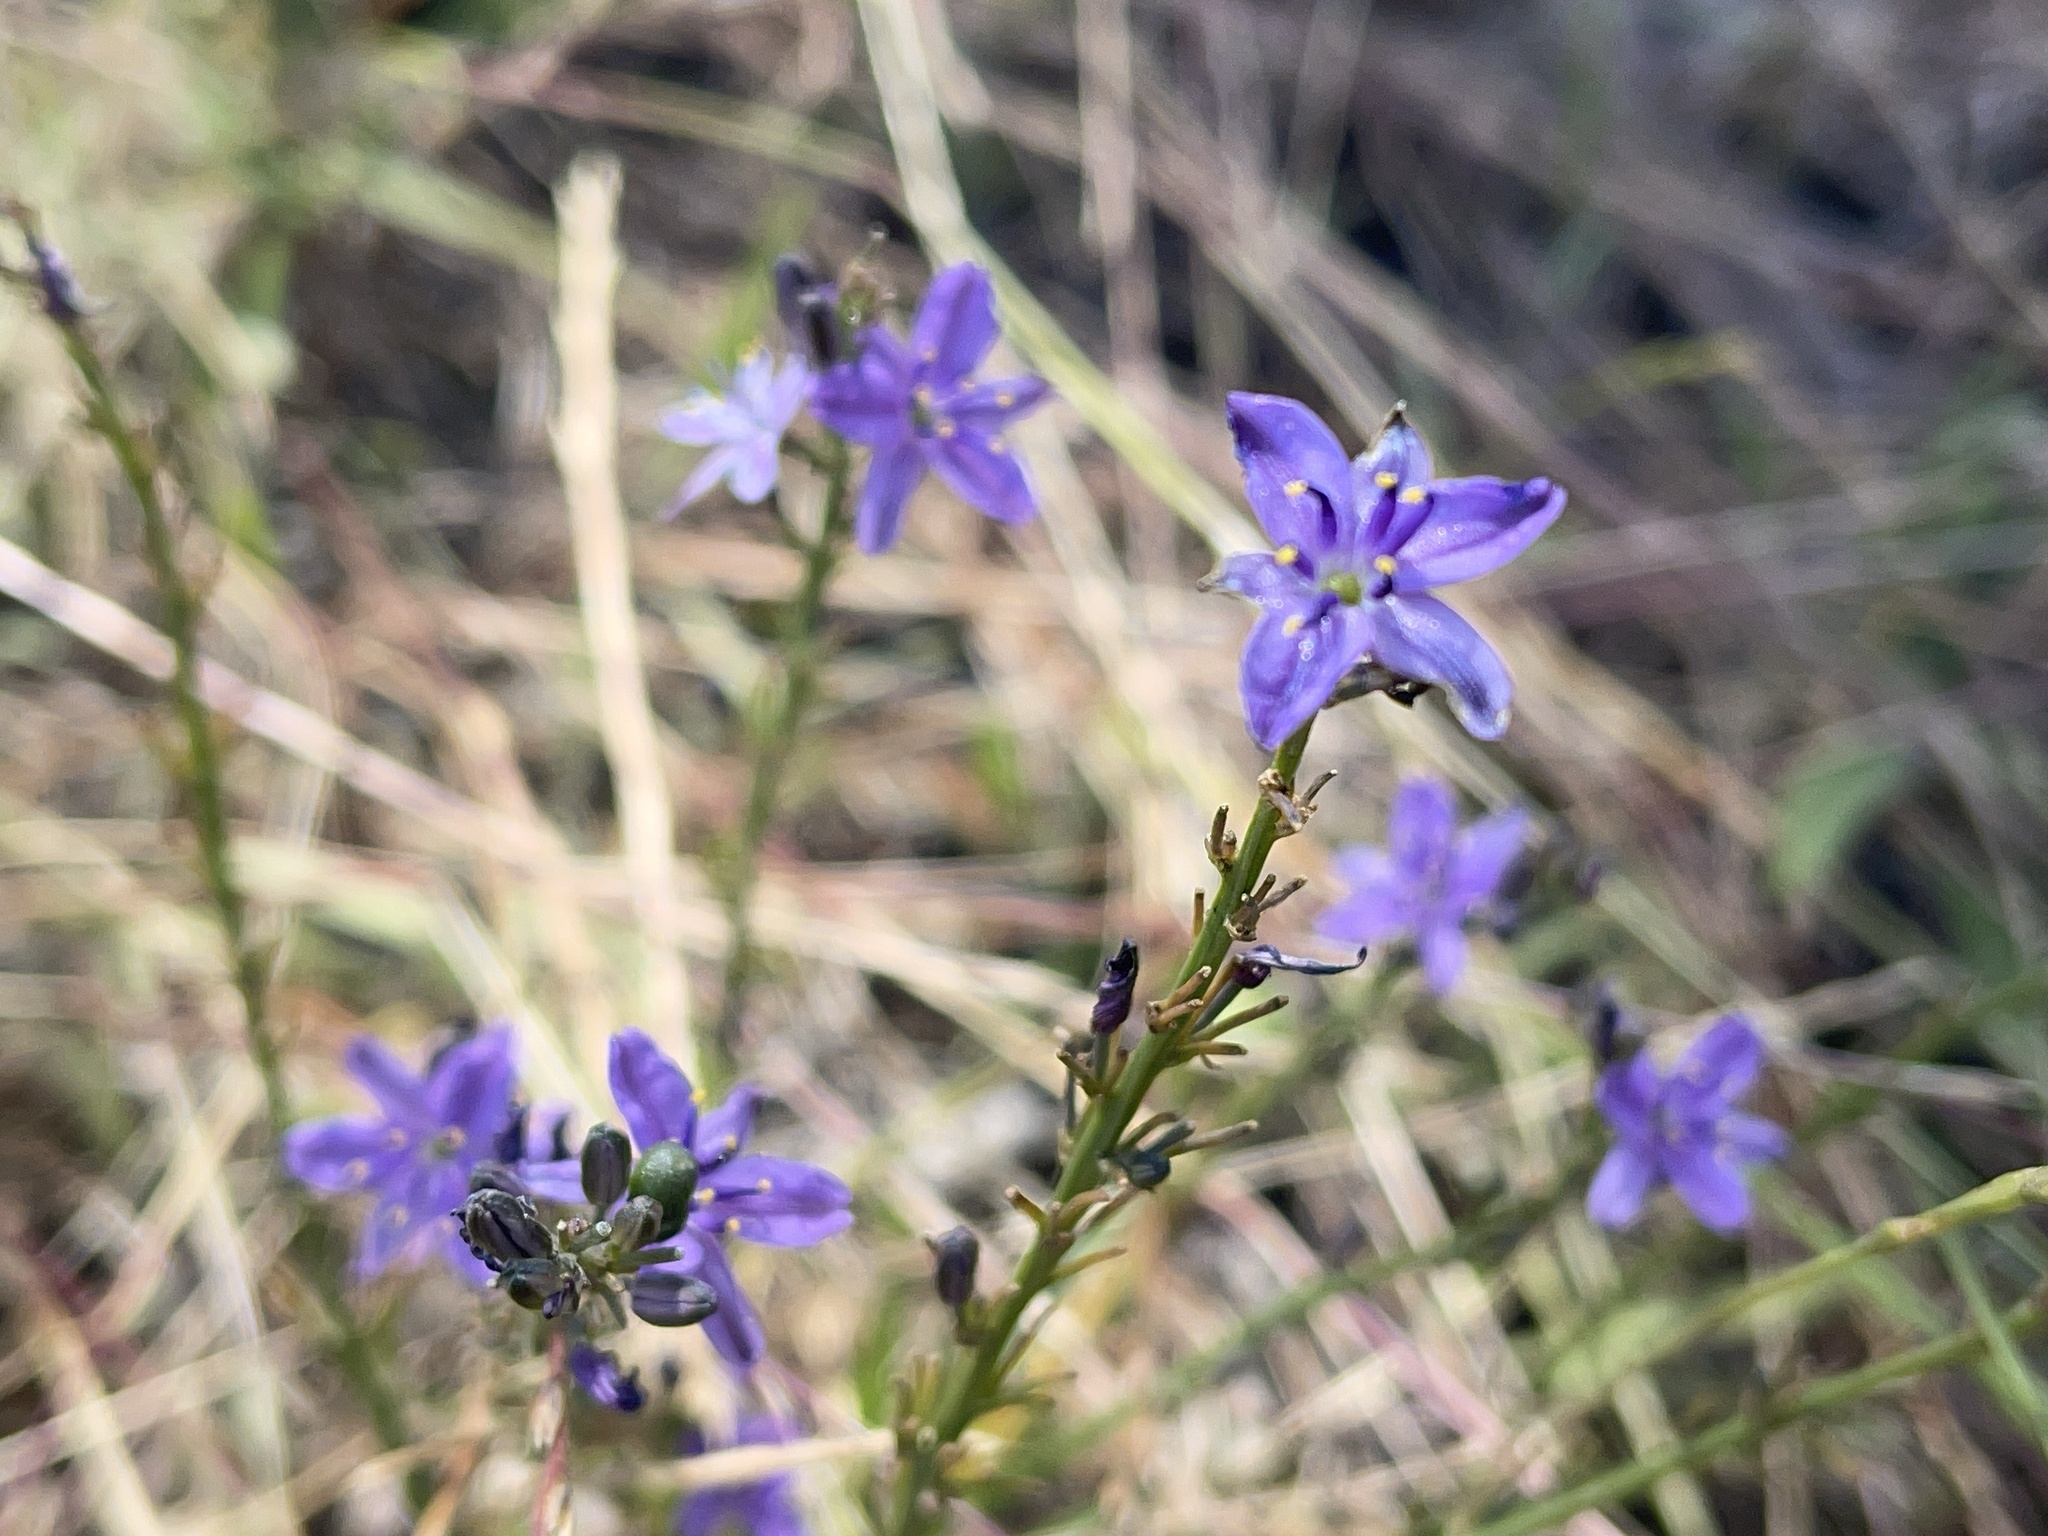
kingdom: Plantae
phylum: Tracheophyta
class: Liliopsida
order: Asparagales
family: Asphodelaceae
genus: Caesia
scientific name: Caesia calliantha
